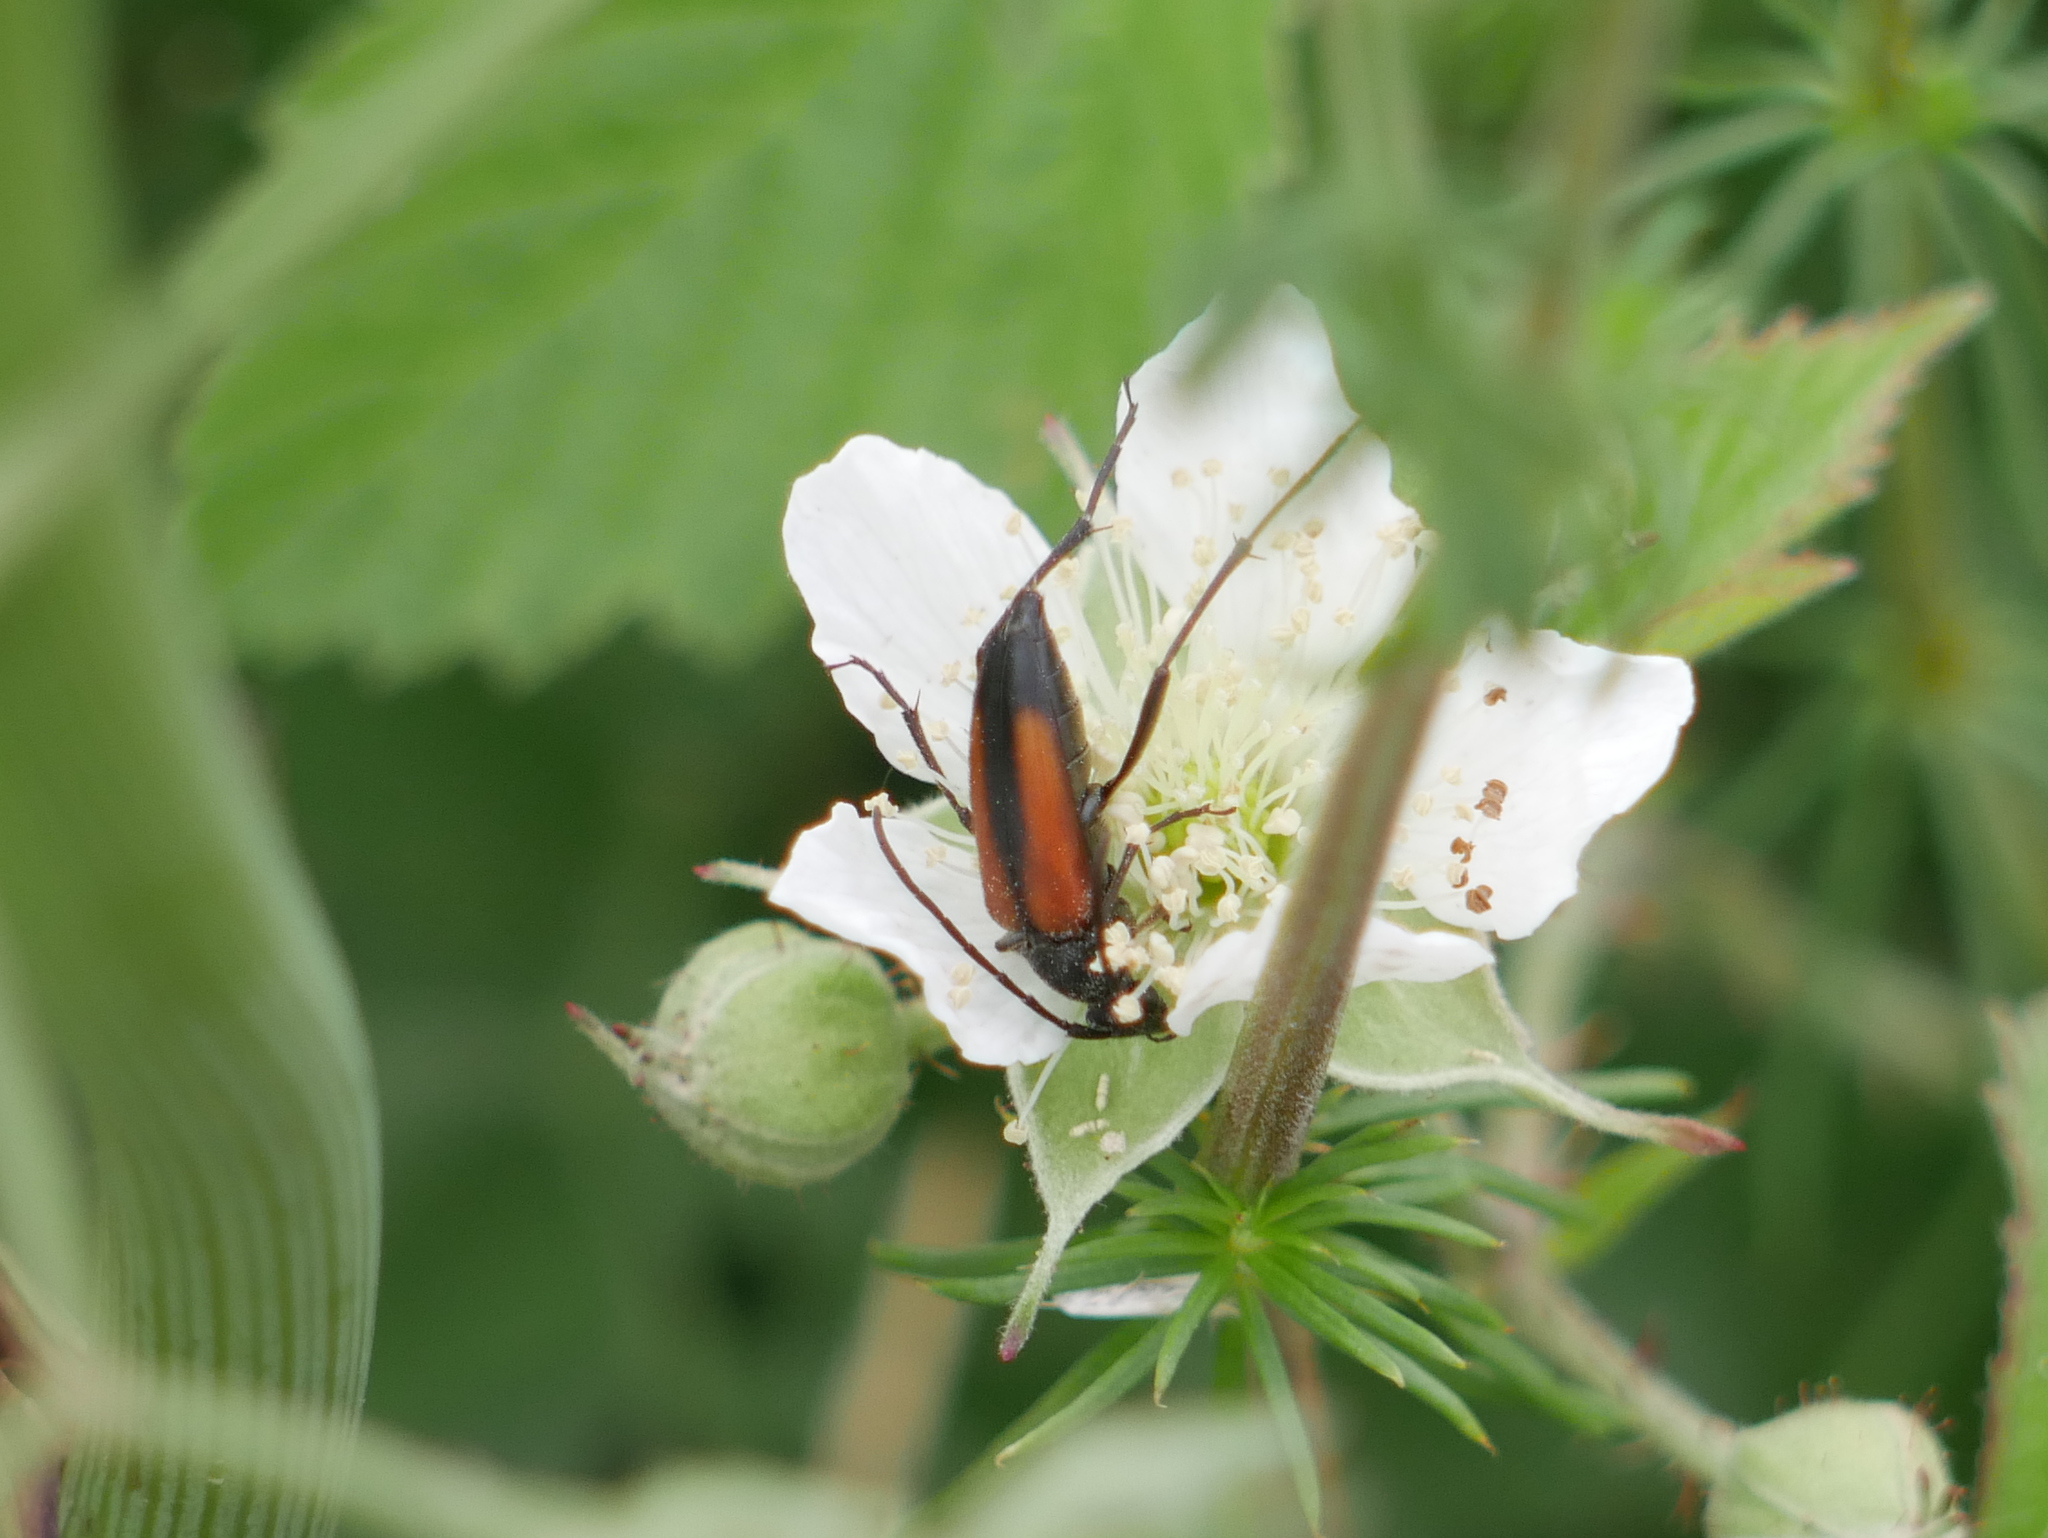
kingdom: Animalia
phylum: Arthropoda
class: Insecta
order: Coleoptera
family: Cerambycidae
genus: Stenurella
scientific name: Stenurella melanura
